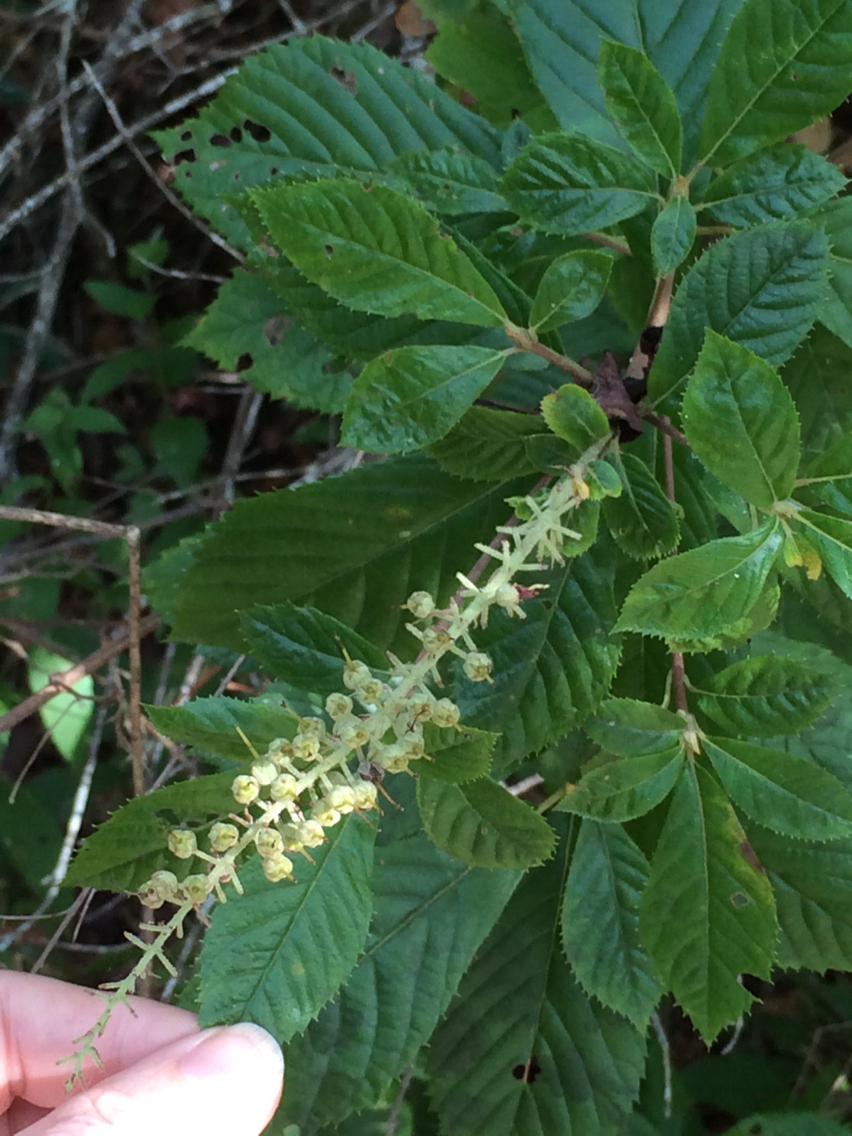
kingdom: Plantae
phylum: Tracheophyta
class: Magnoliopsida
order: Ericales
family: Clethraceae
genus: Clethra
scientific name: Clethra alnifolia
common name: Sweet pepperbush
